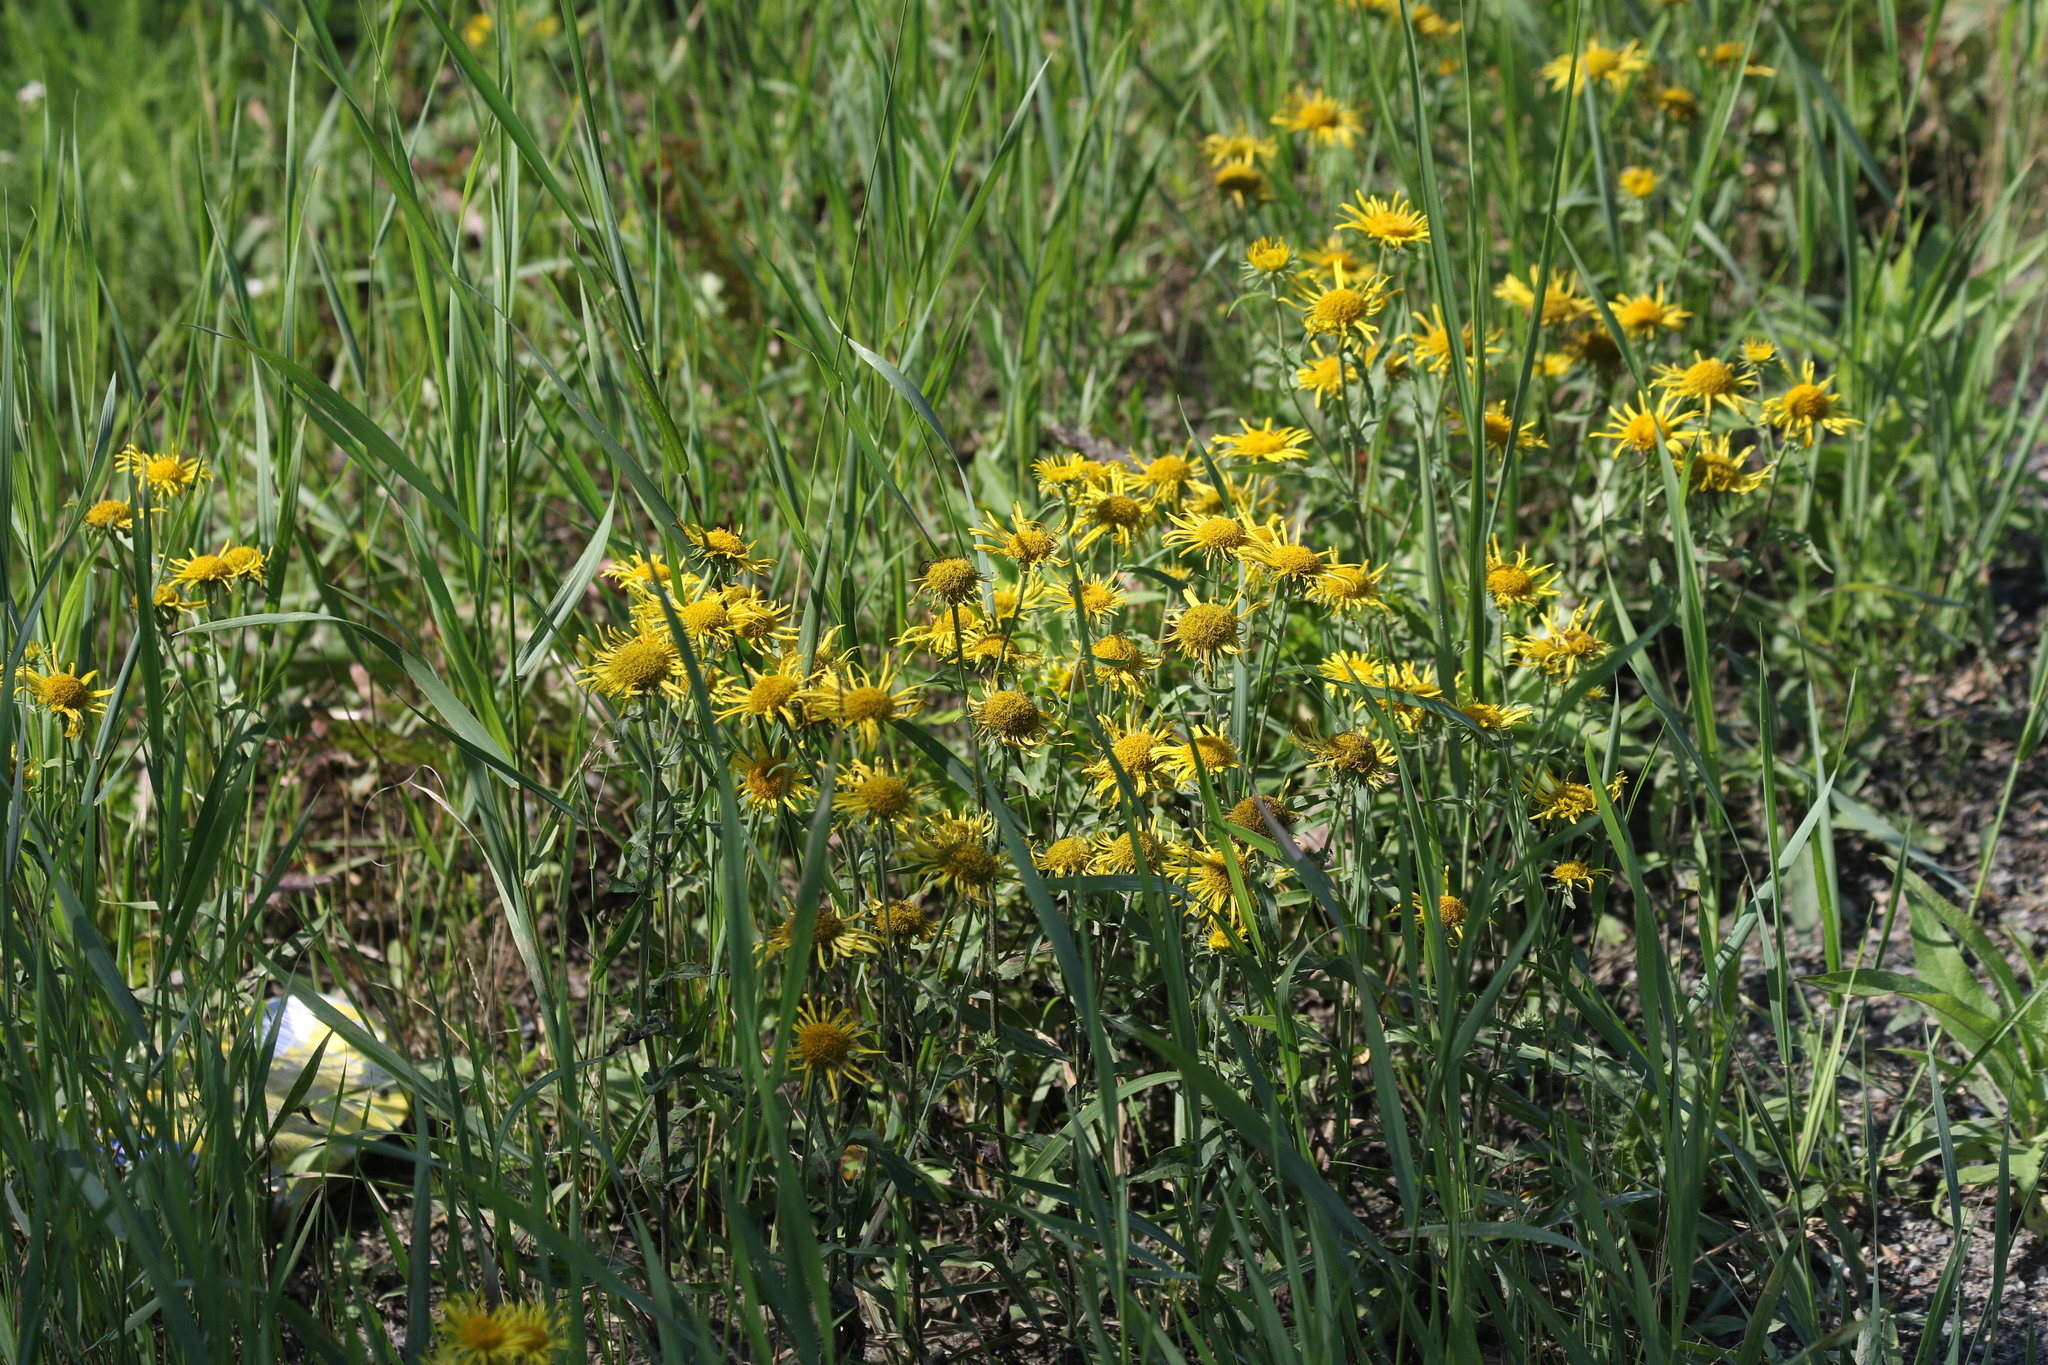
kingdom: Plantae
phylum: Tracheophyta
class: Magnoliopsida
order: Asterales
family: Asteraceae
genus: Pentanema
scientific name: Pentanema britannicum
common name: British elecampane
